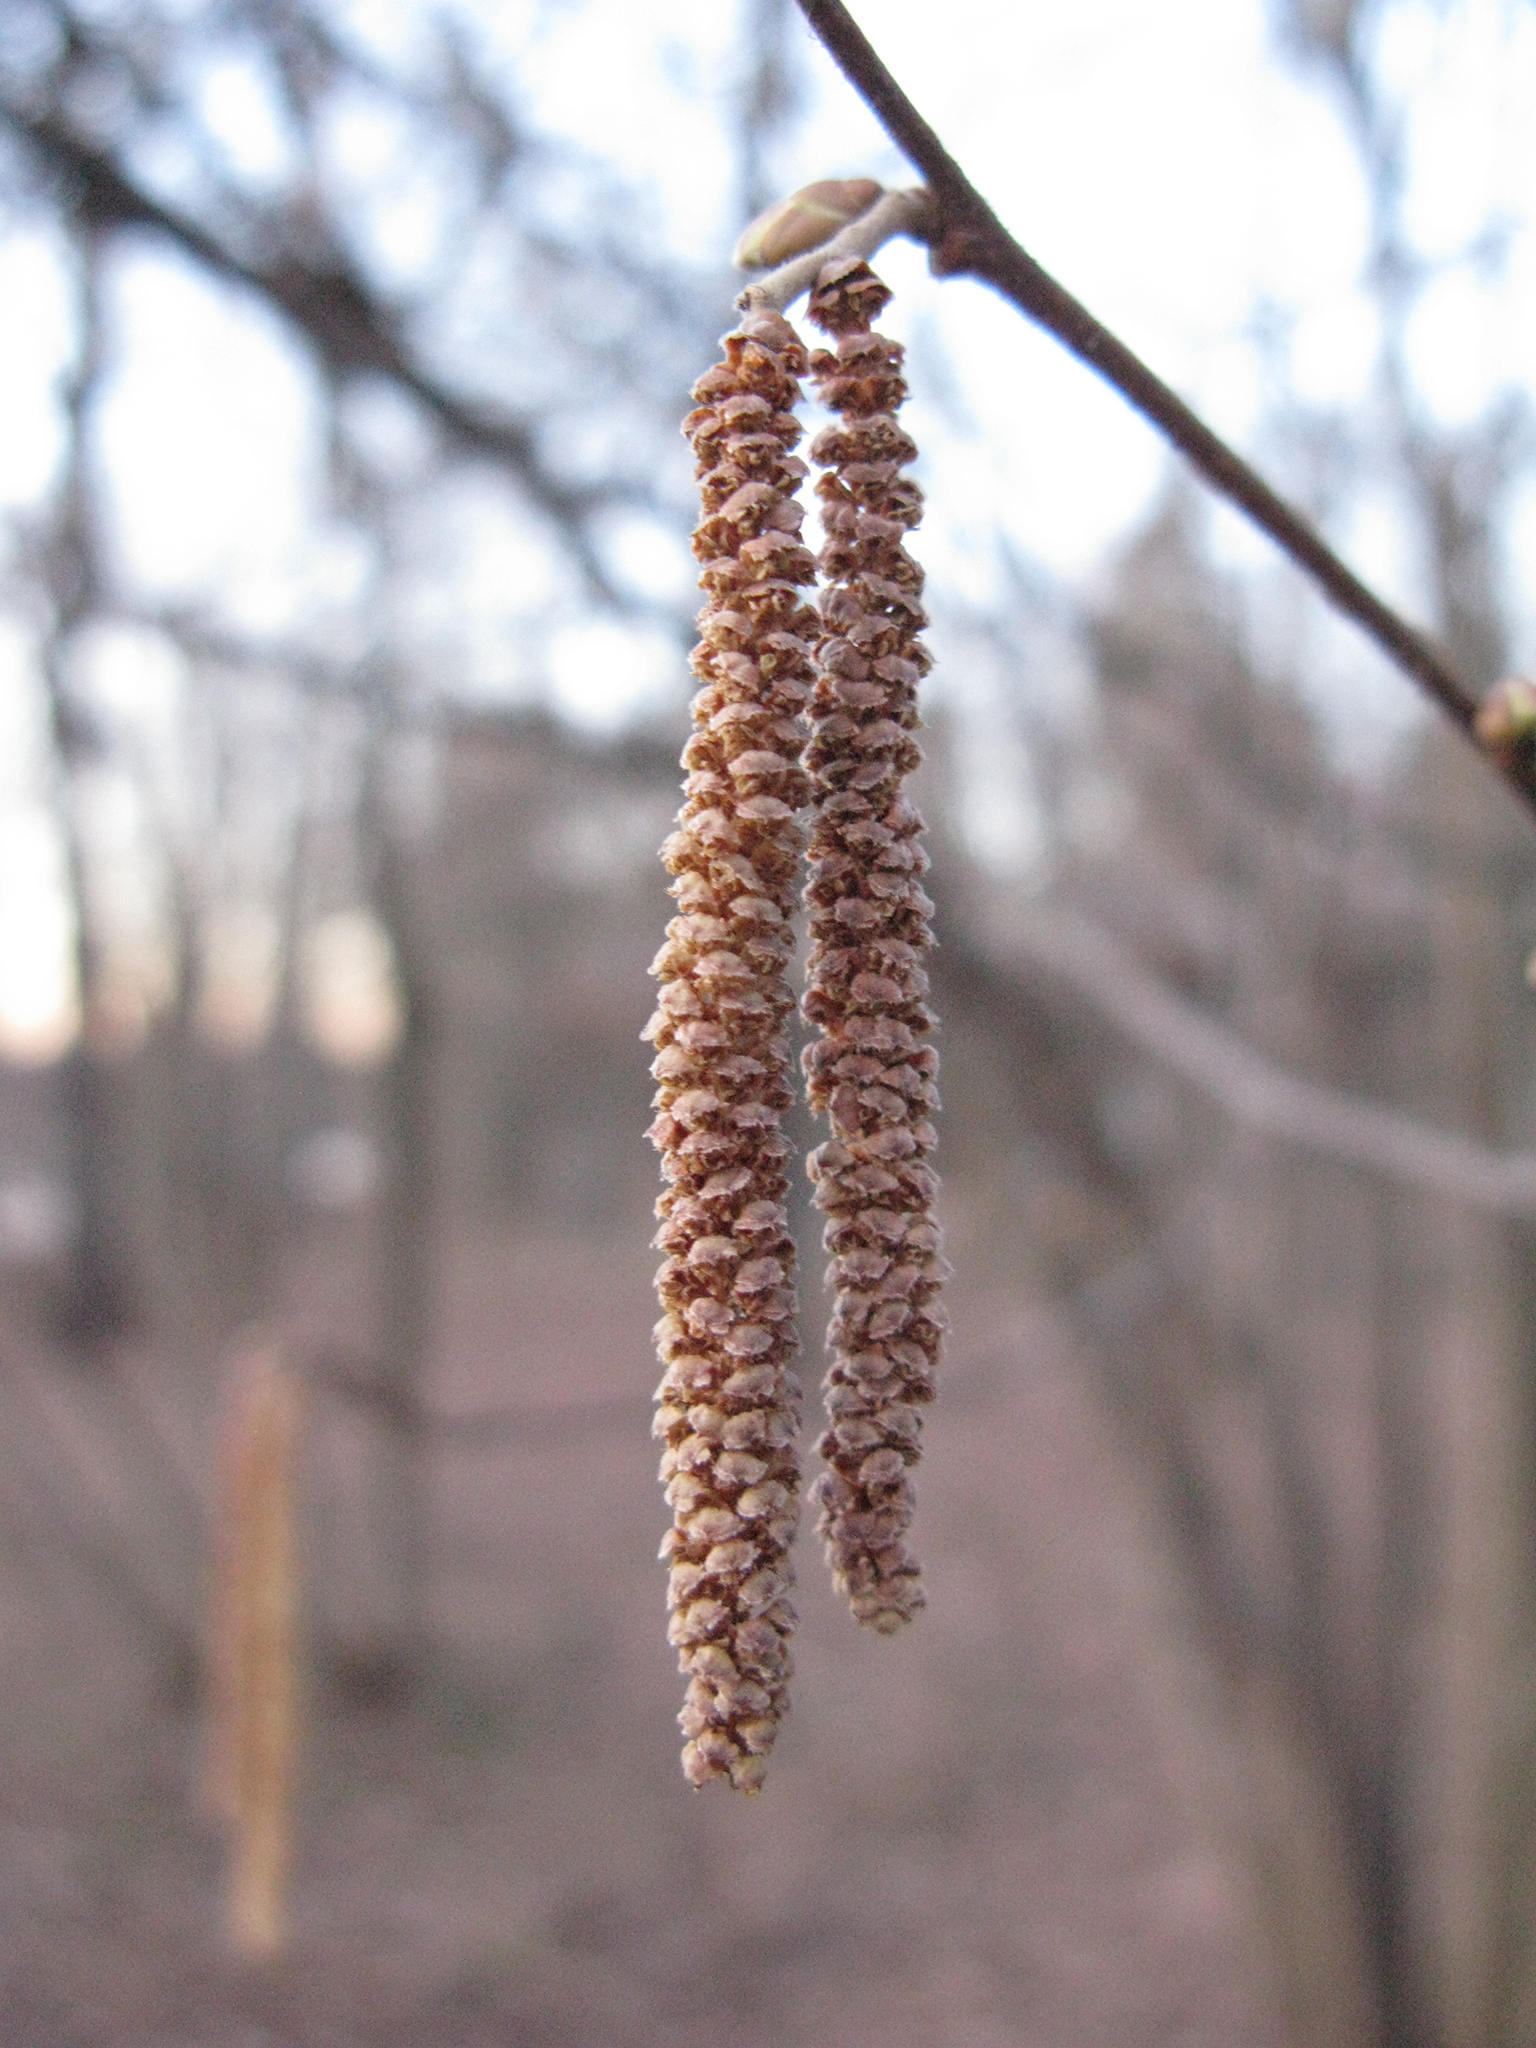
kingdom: Plantae
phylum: Tracheophyta
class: Magnoliopsida
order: Fagales
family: Betulaceae
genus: Corylus
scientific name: Corylus avellana
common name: European hazel
